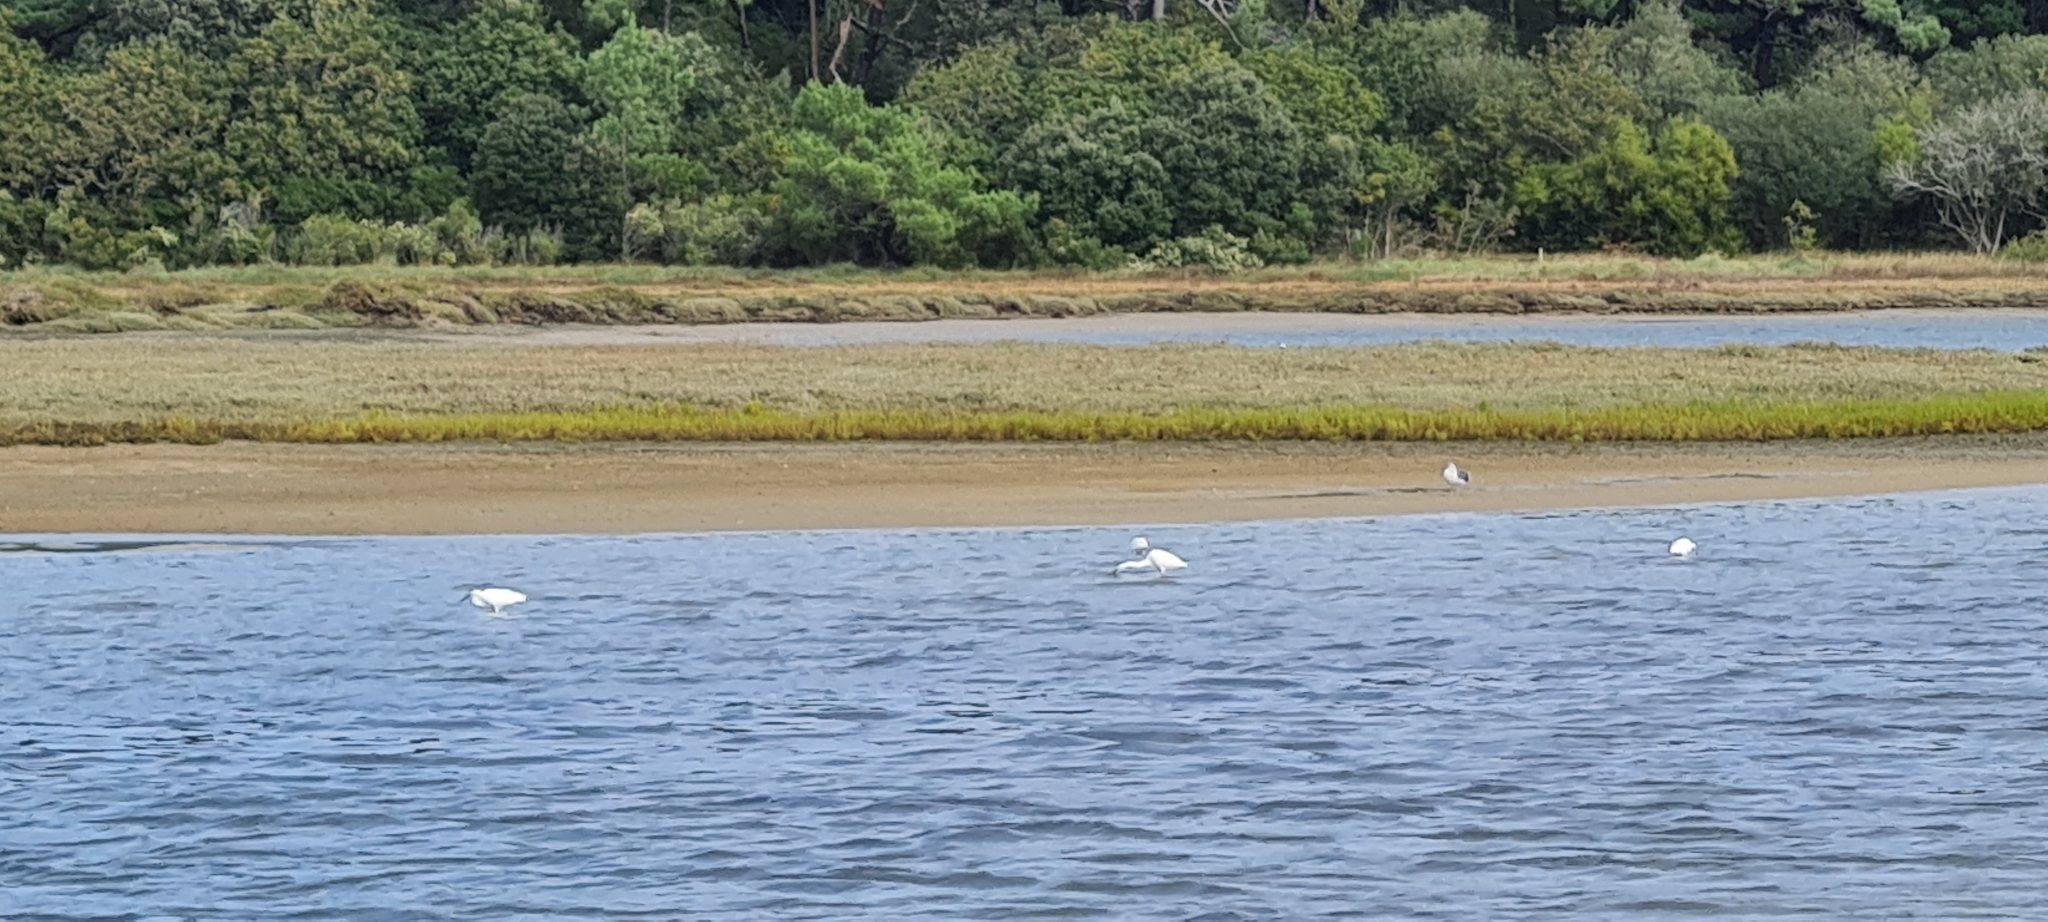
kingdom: Animalia
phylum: Chordata
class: Aves
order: Pelecaniformes
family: Ardeidae
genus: Egretta
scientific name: Egretta garzetta
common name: Little egret
